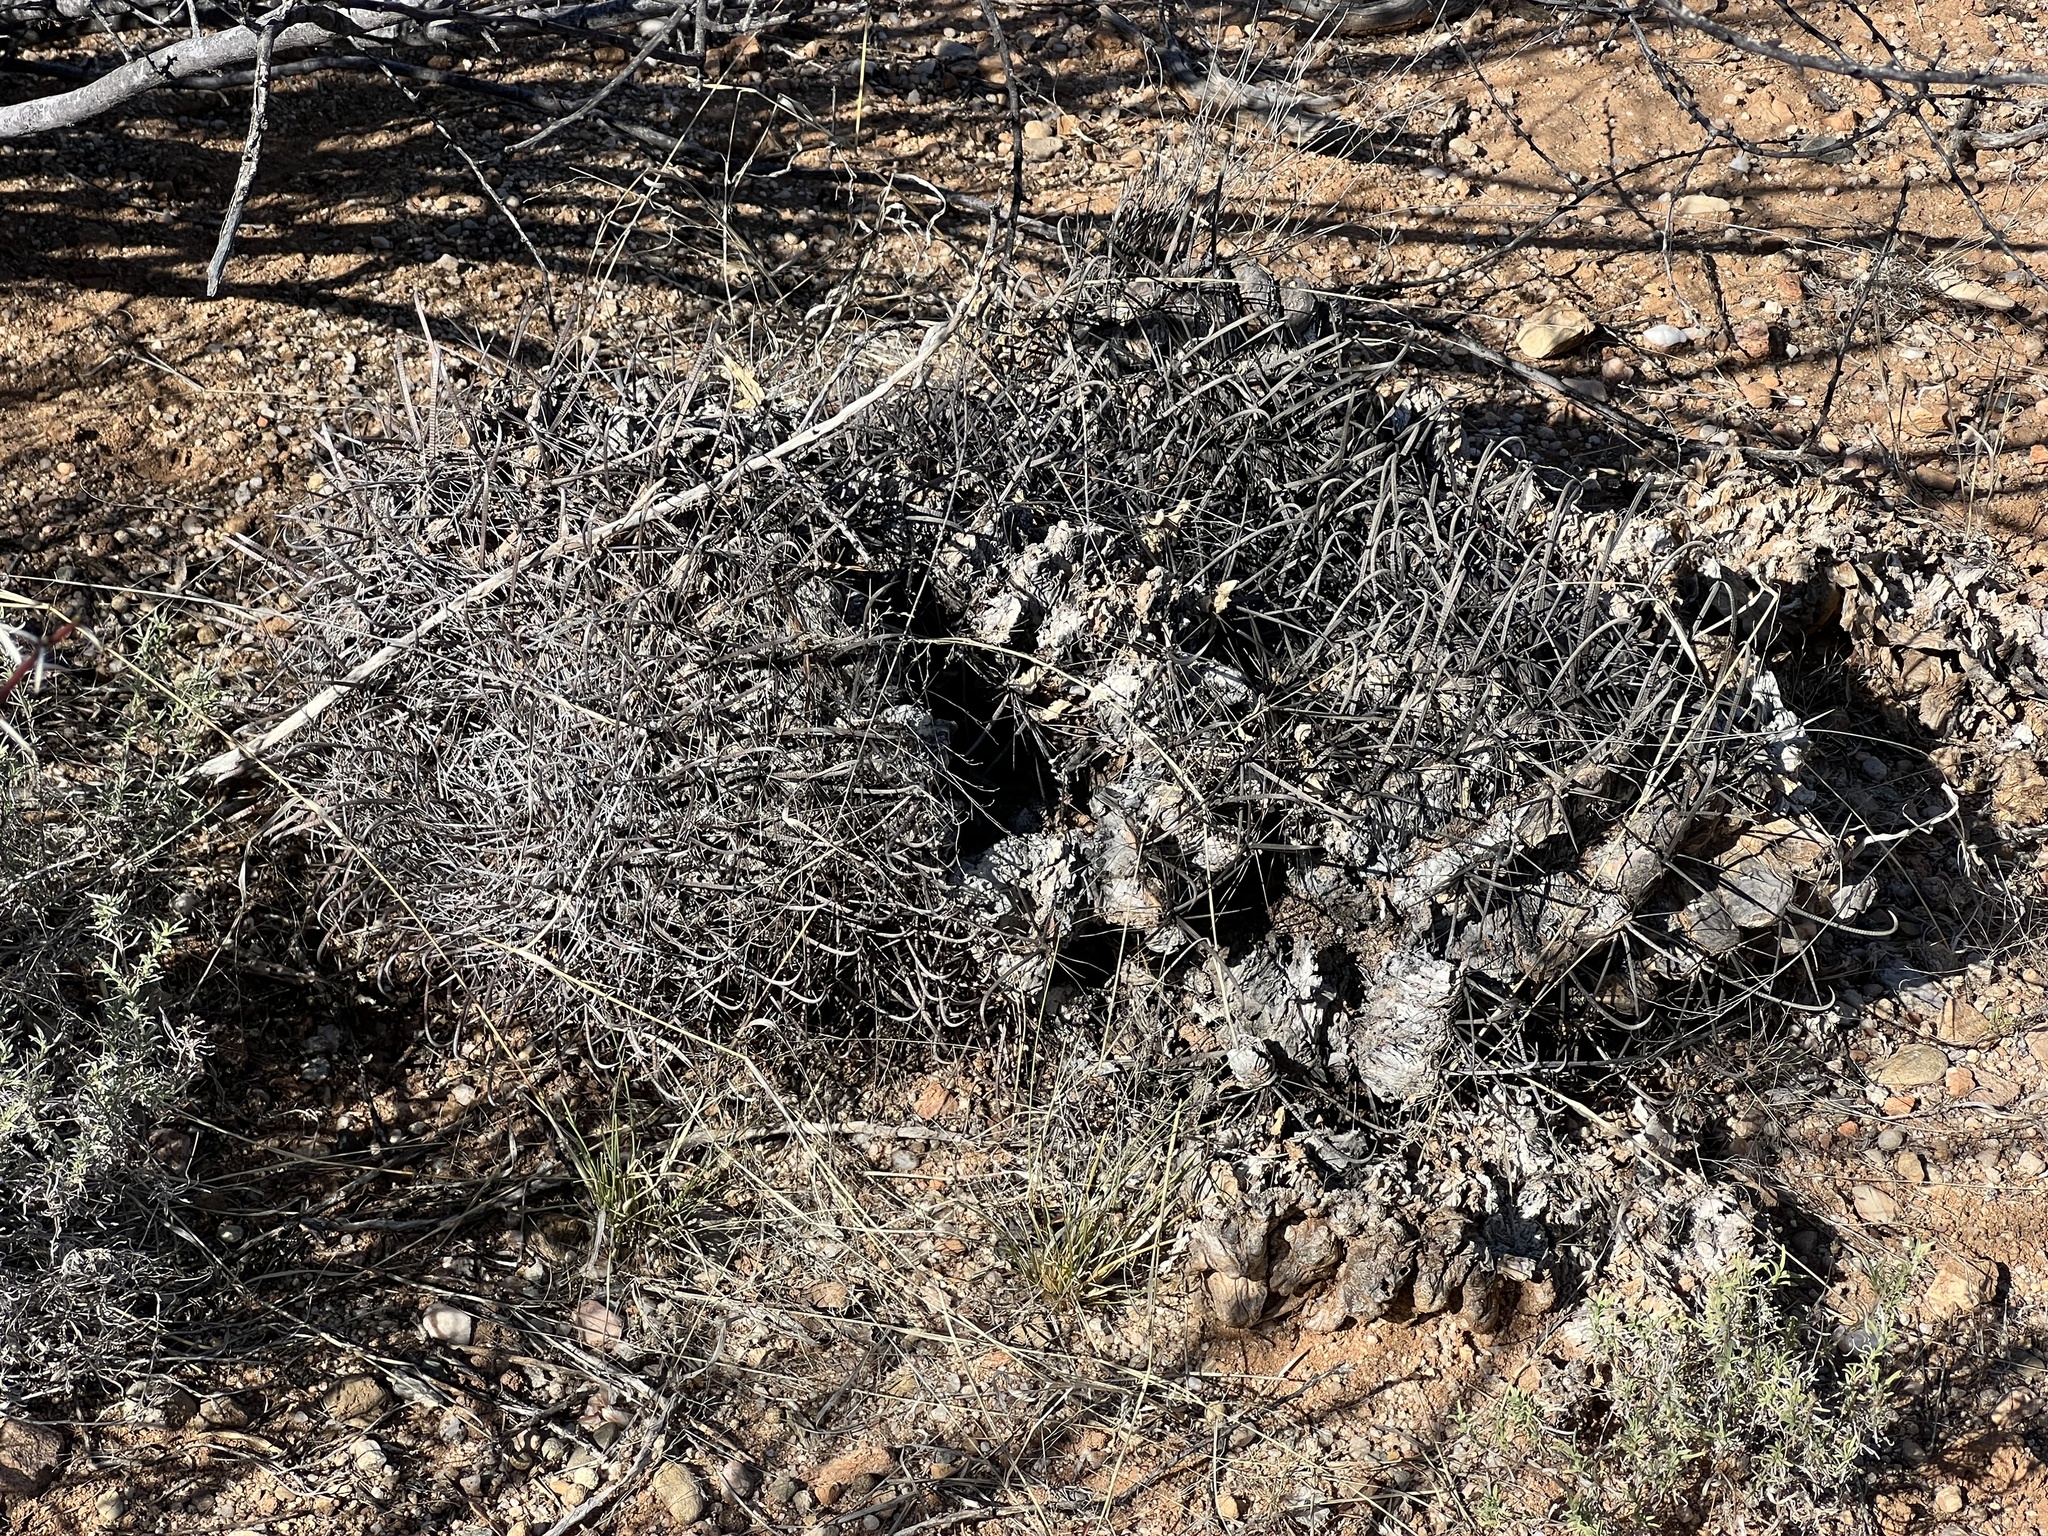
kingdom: Plantae
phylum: Tracheophyta
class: Magnoliopsida
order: Caryophyllales
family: Cactaceae
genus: Ferocactus
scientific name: Ferocactus wislizeni
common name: Candy barrel cactus
